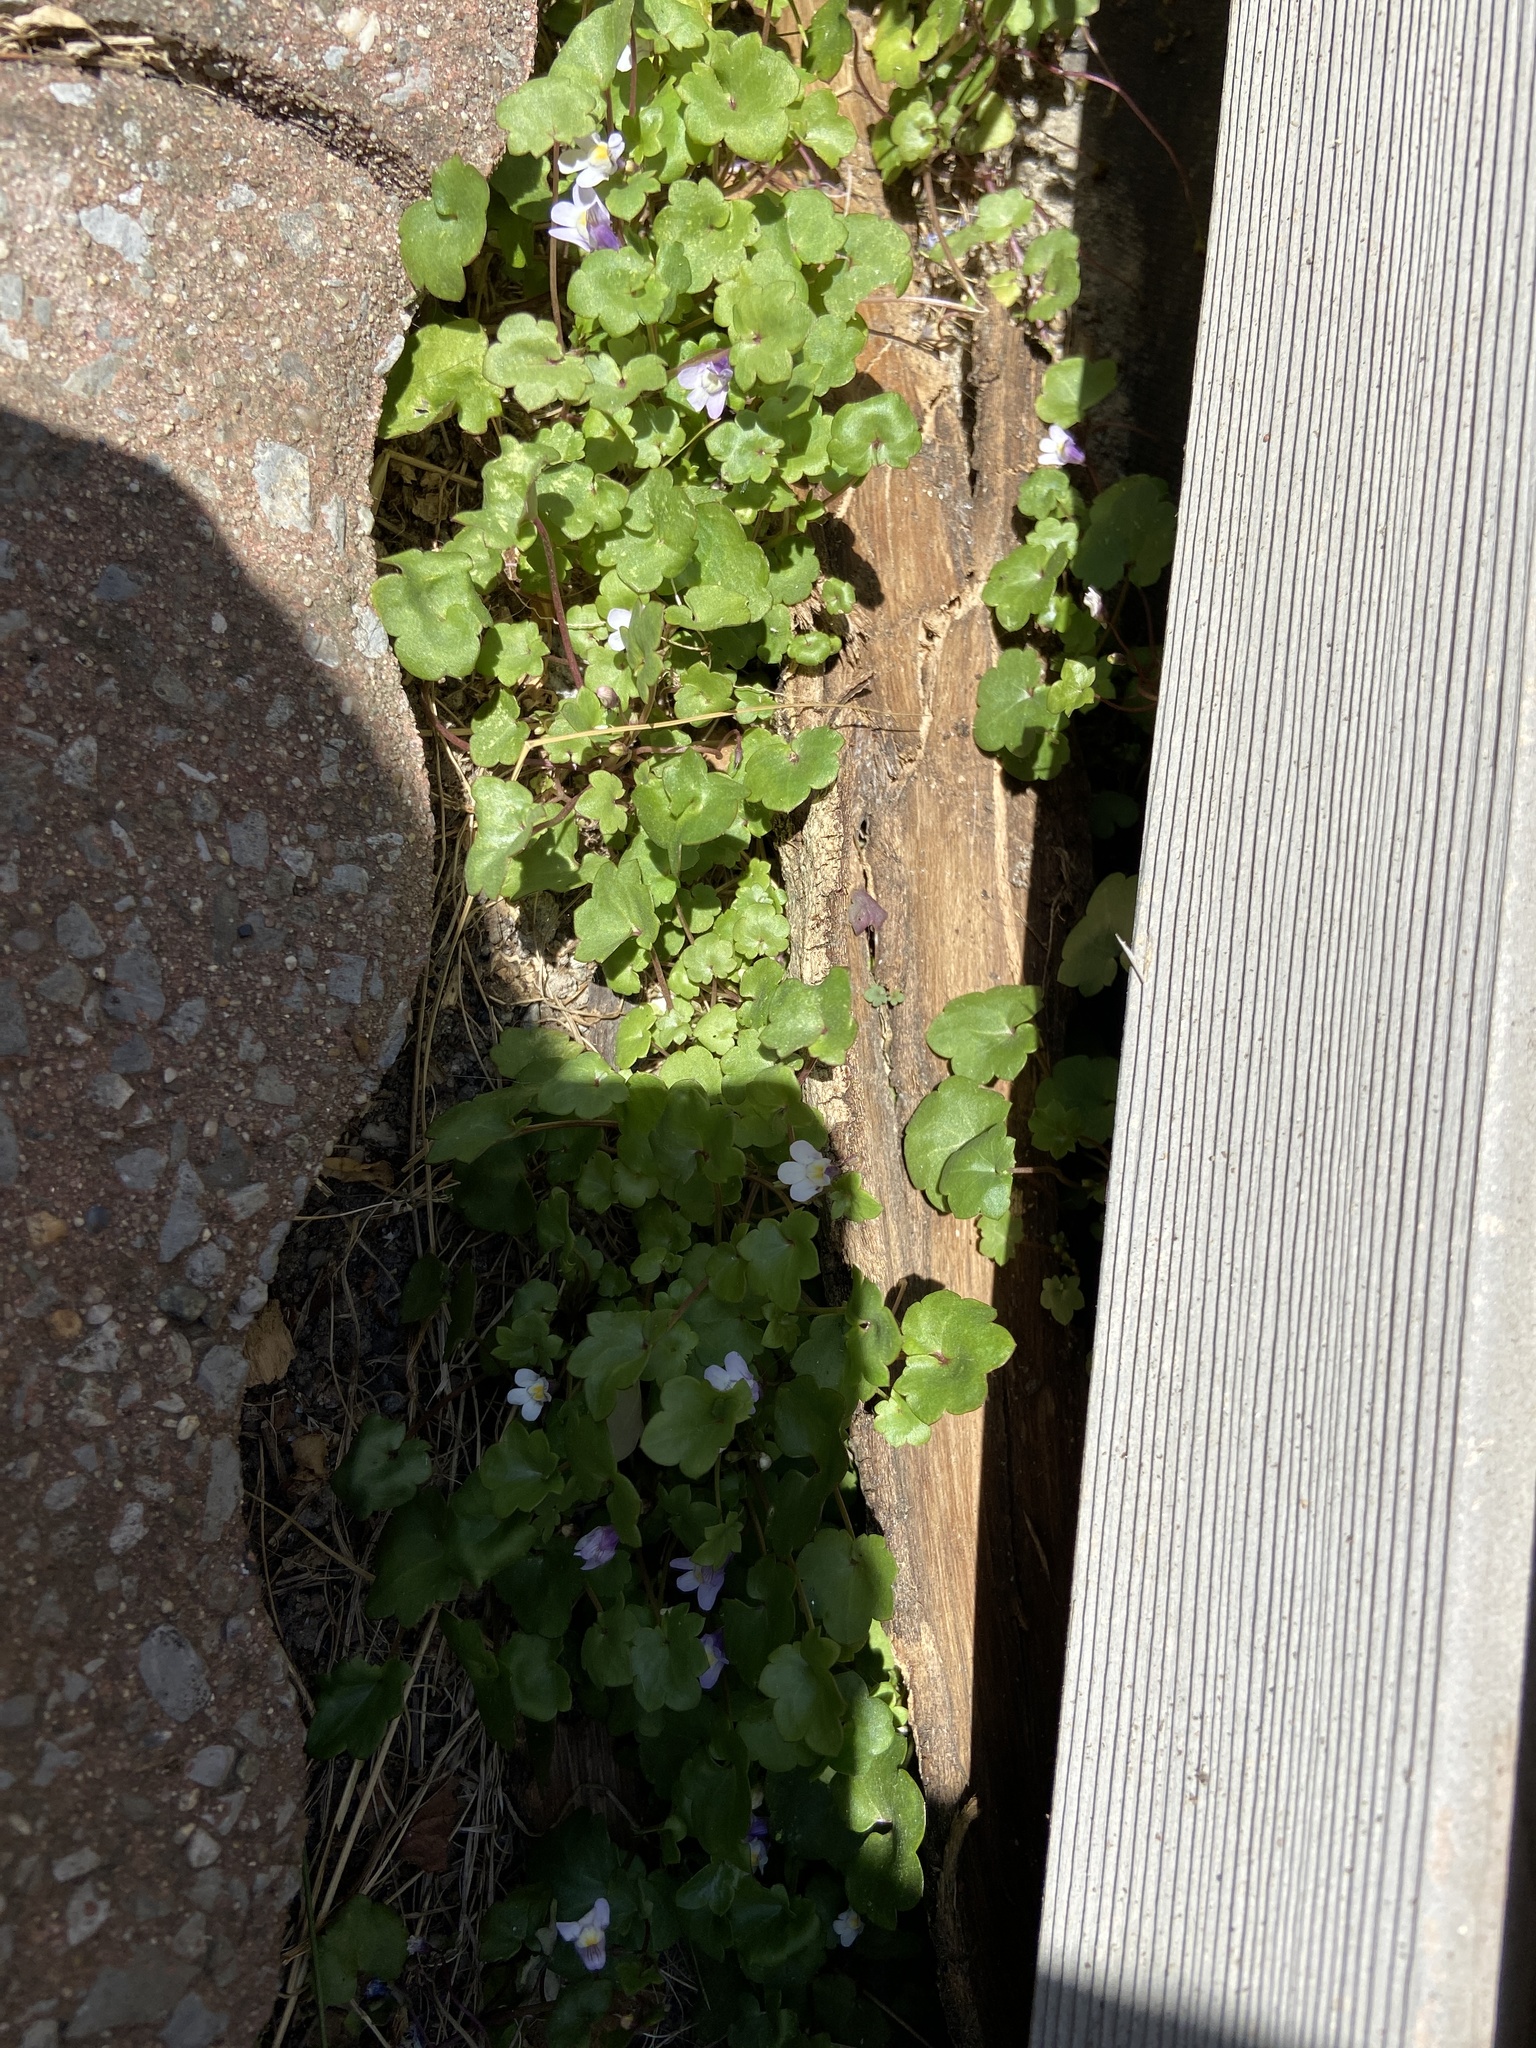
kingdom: Plantae
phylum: Tracheophyta
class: Magnoliopsida
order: Lamiales
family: Plantaginaceae
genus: Cymbalaria
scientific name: Cymbalaria muralis
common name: Ivy-leaved toadflax
